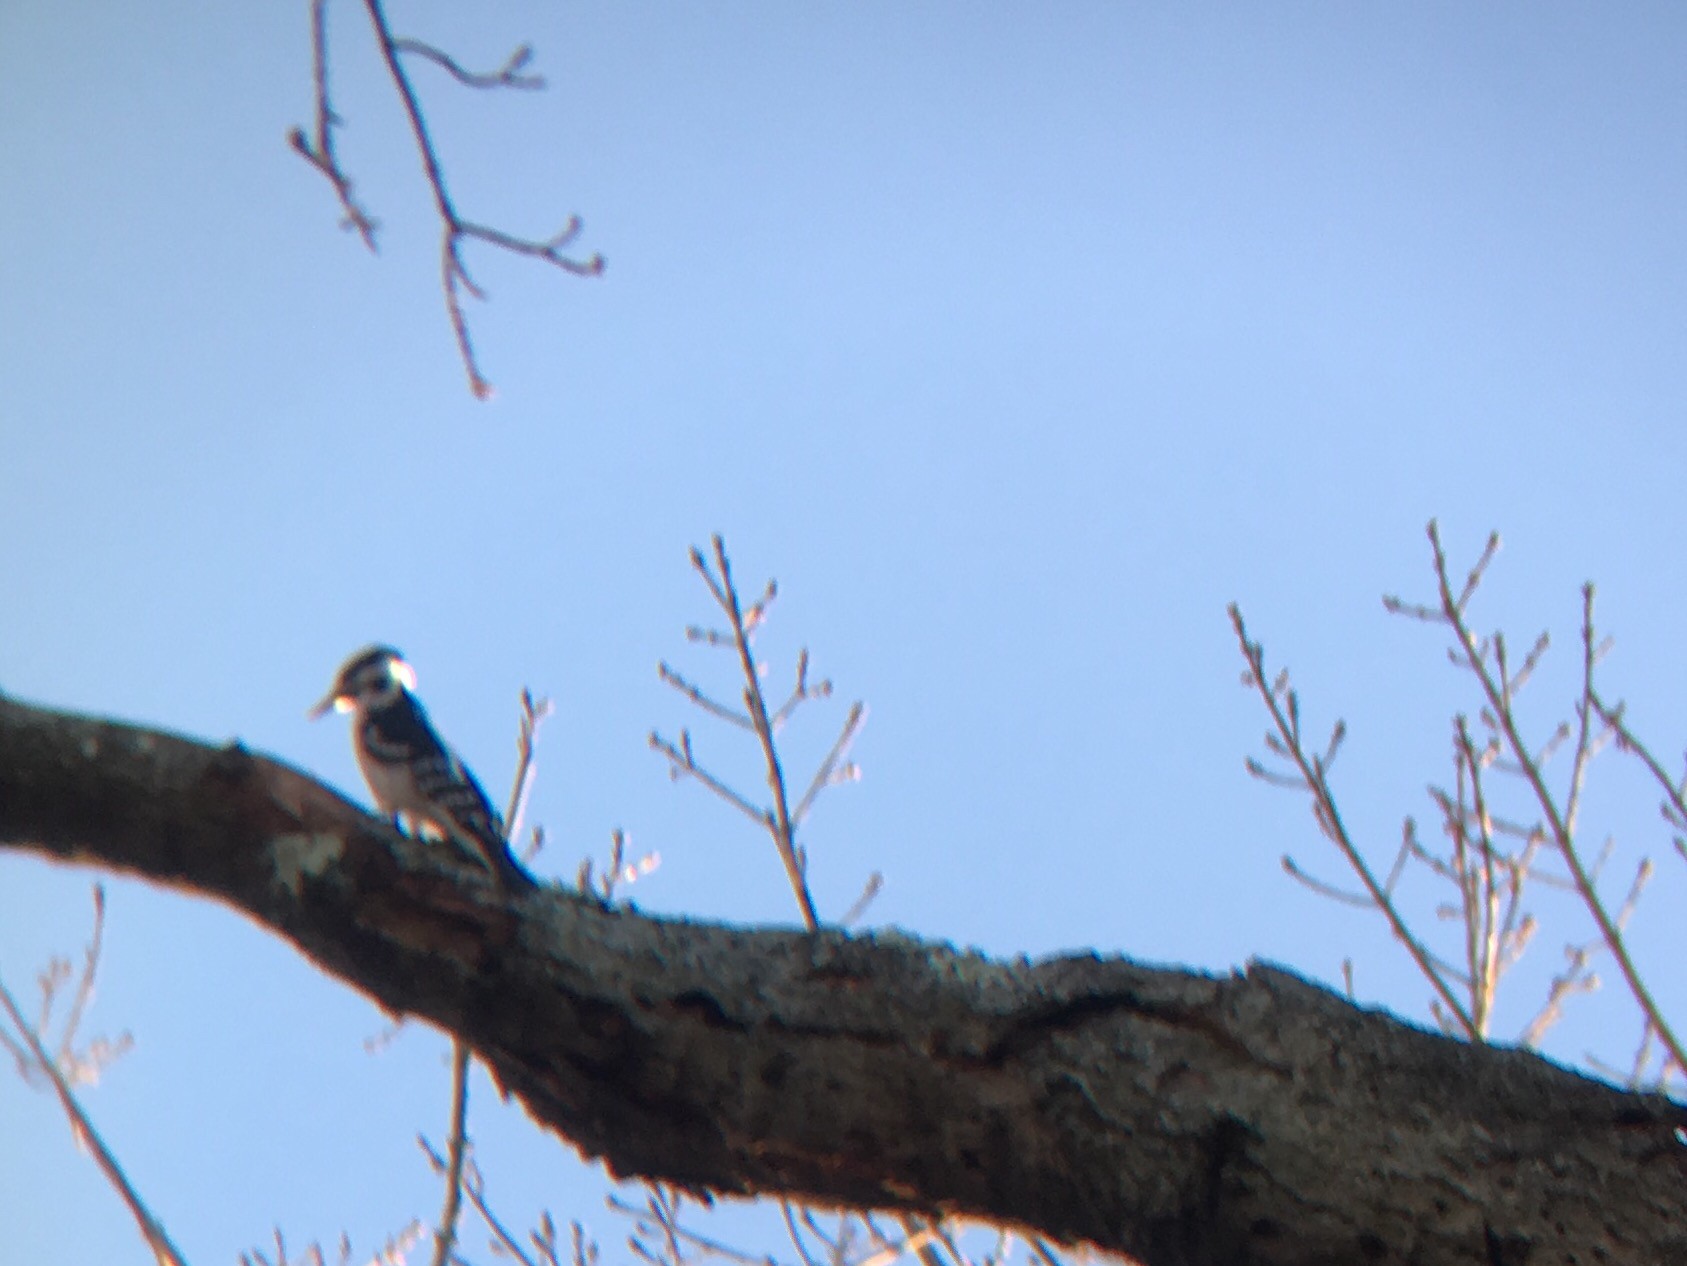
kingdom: Animalia
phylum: Chordata
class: Aves
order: Piciformes
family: Picidae
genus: Leuconotopicus
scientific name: Leuconotopicus villosus
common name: Hairy woodpecker
